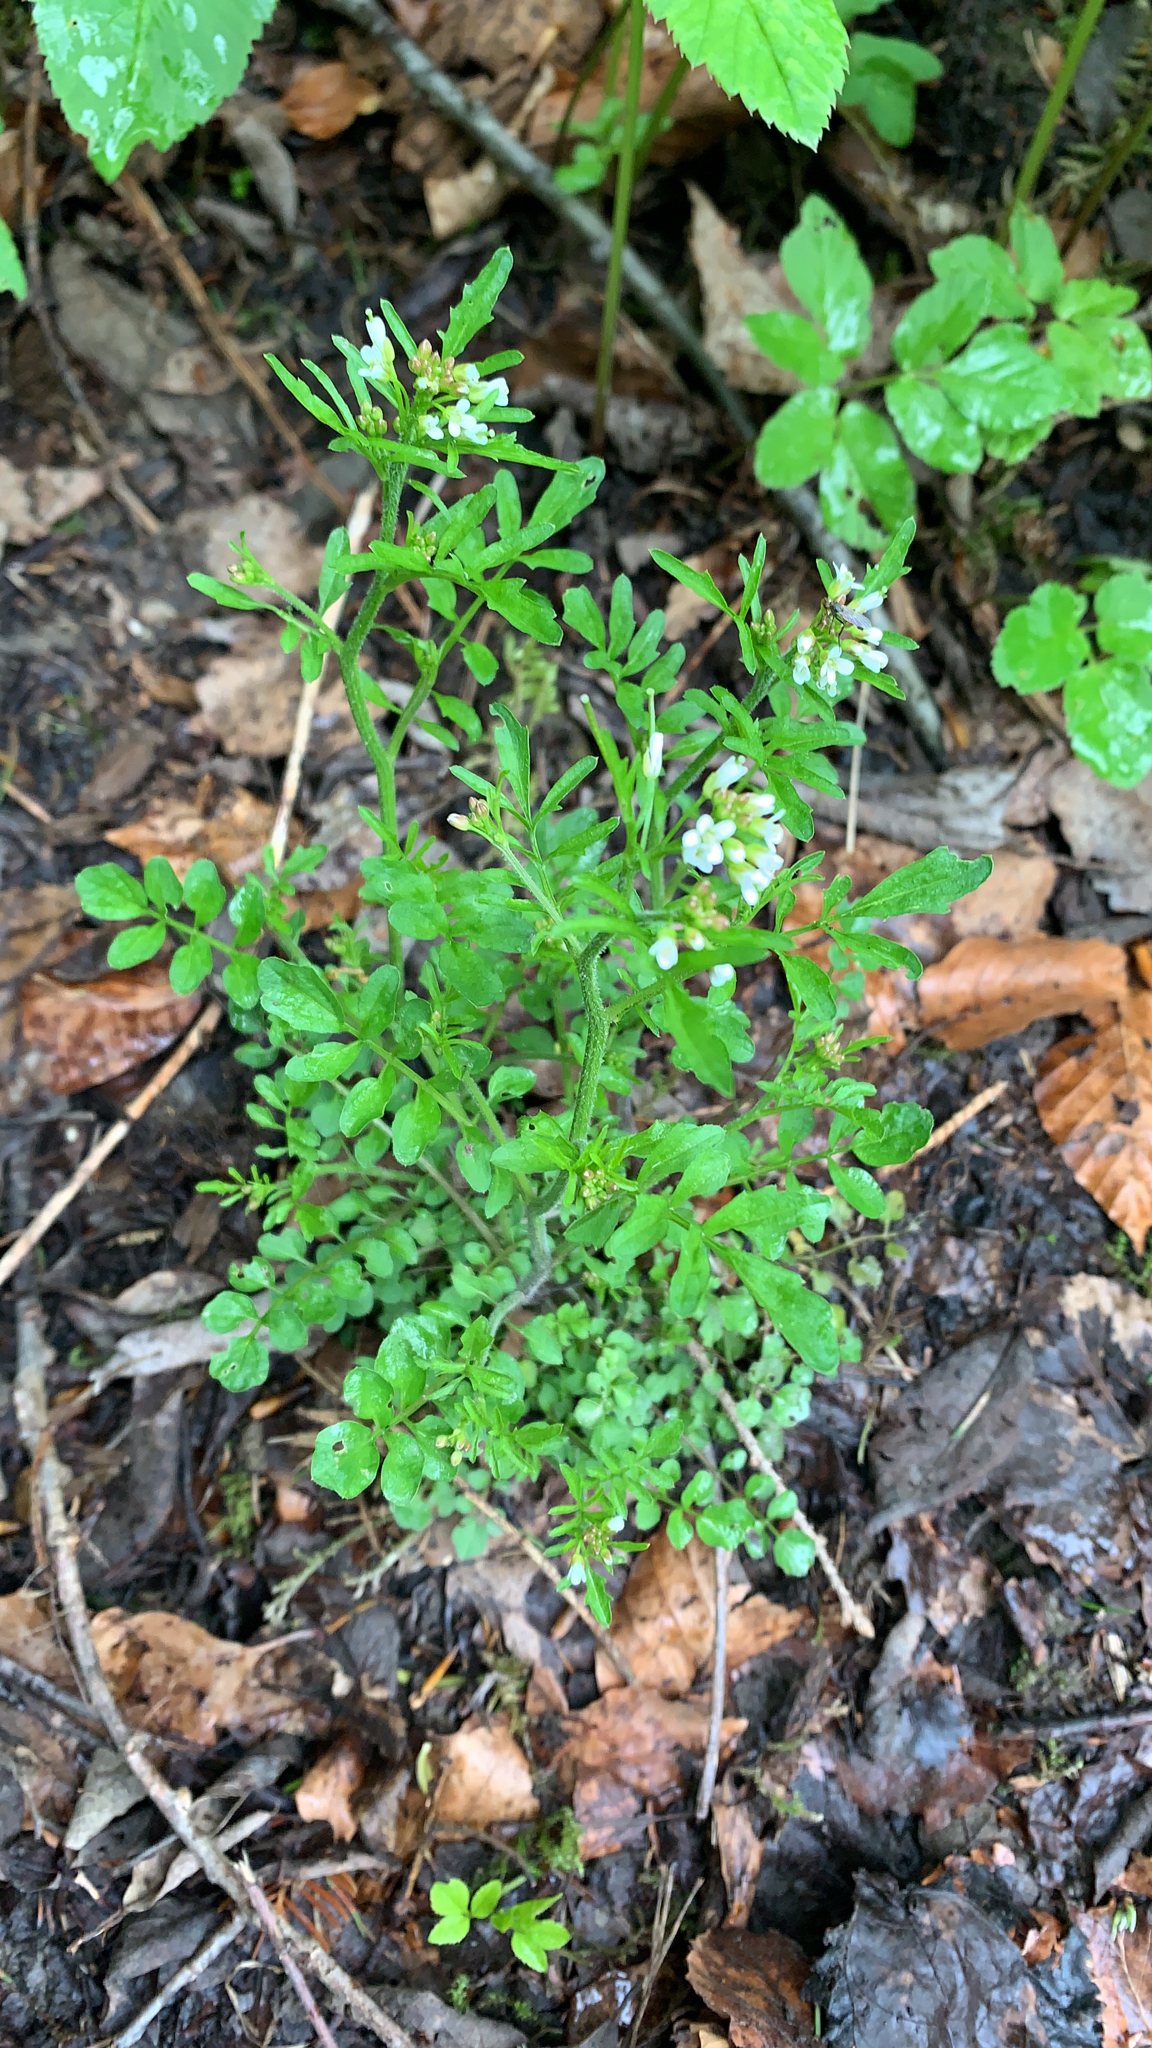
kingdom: Plantae
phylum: Tracheophyta
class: Magnoliopsida
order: Brassicales
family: Brassicaceae
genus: Cardamine
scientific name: Cardamine flexuosa
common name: Woodland bittercress
